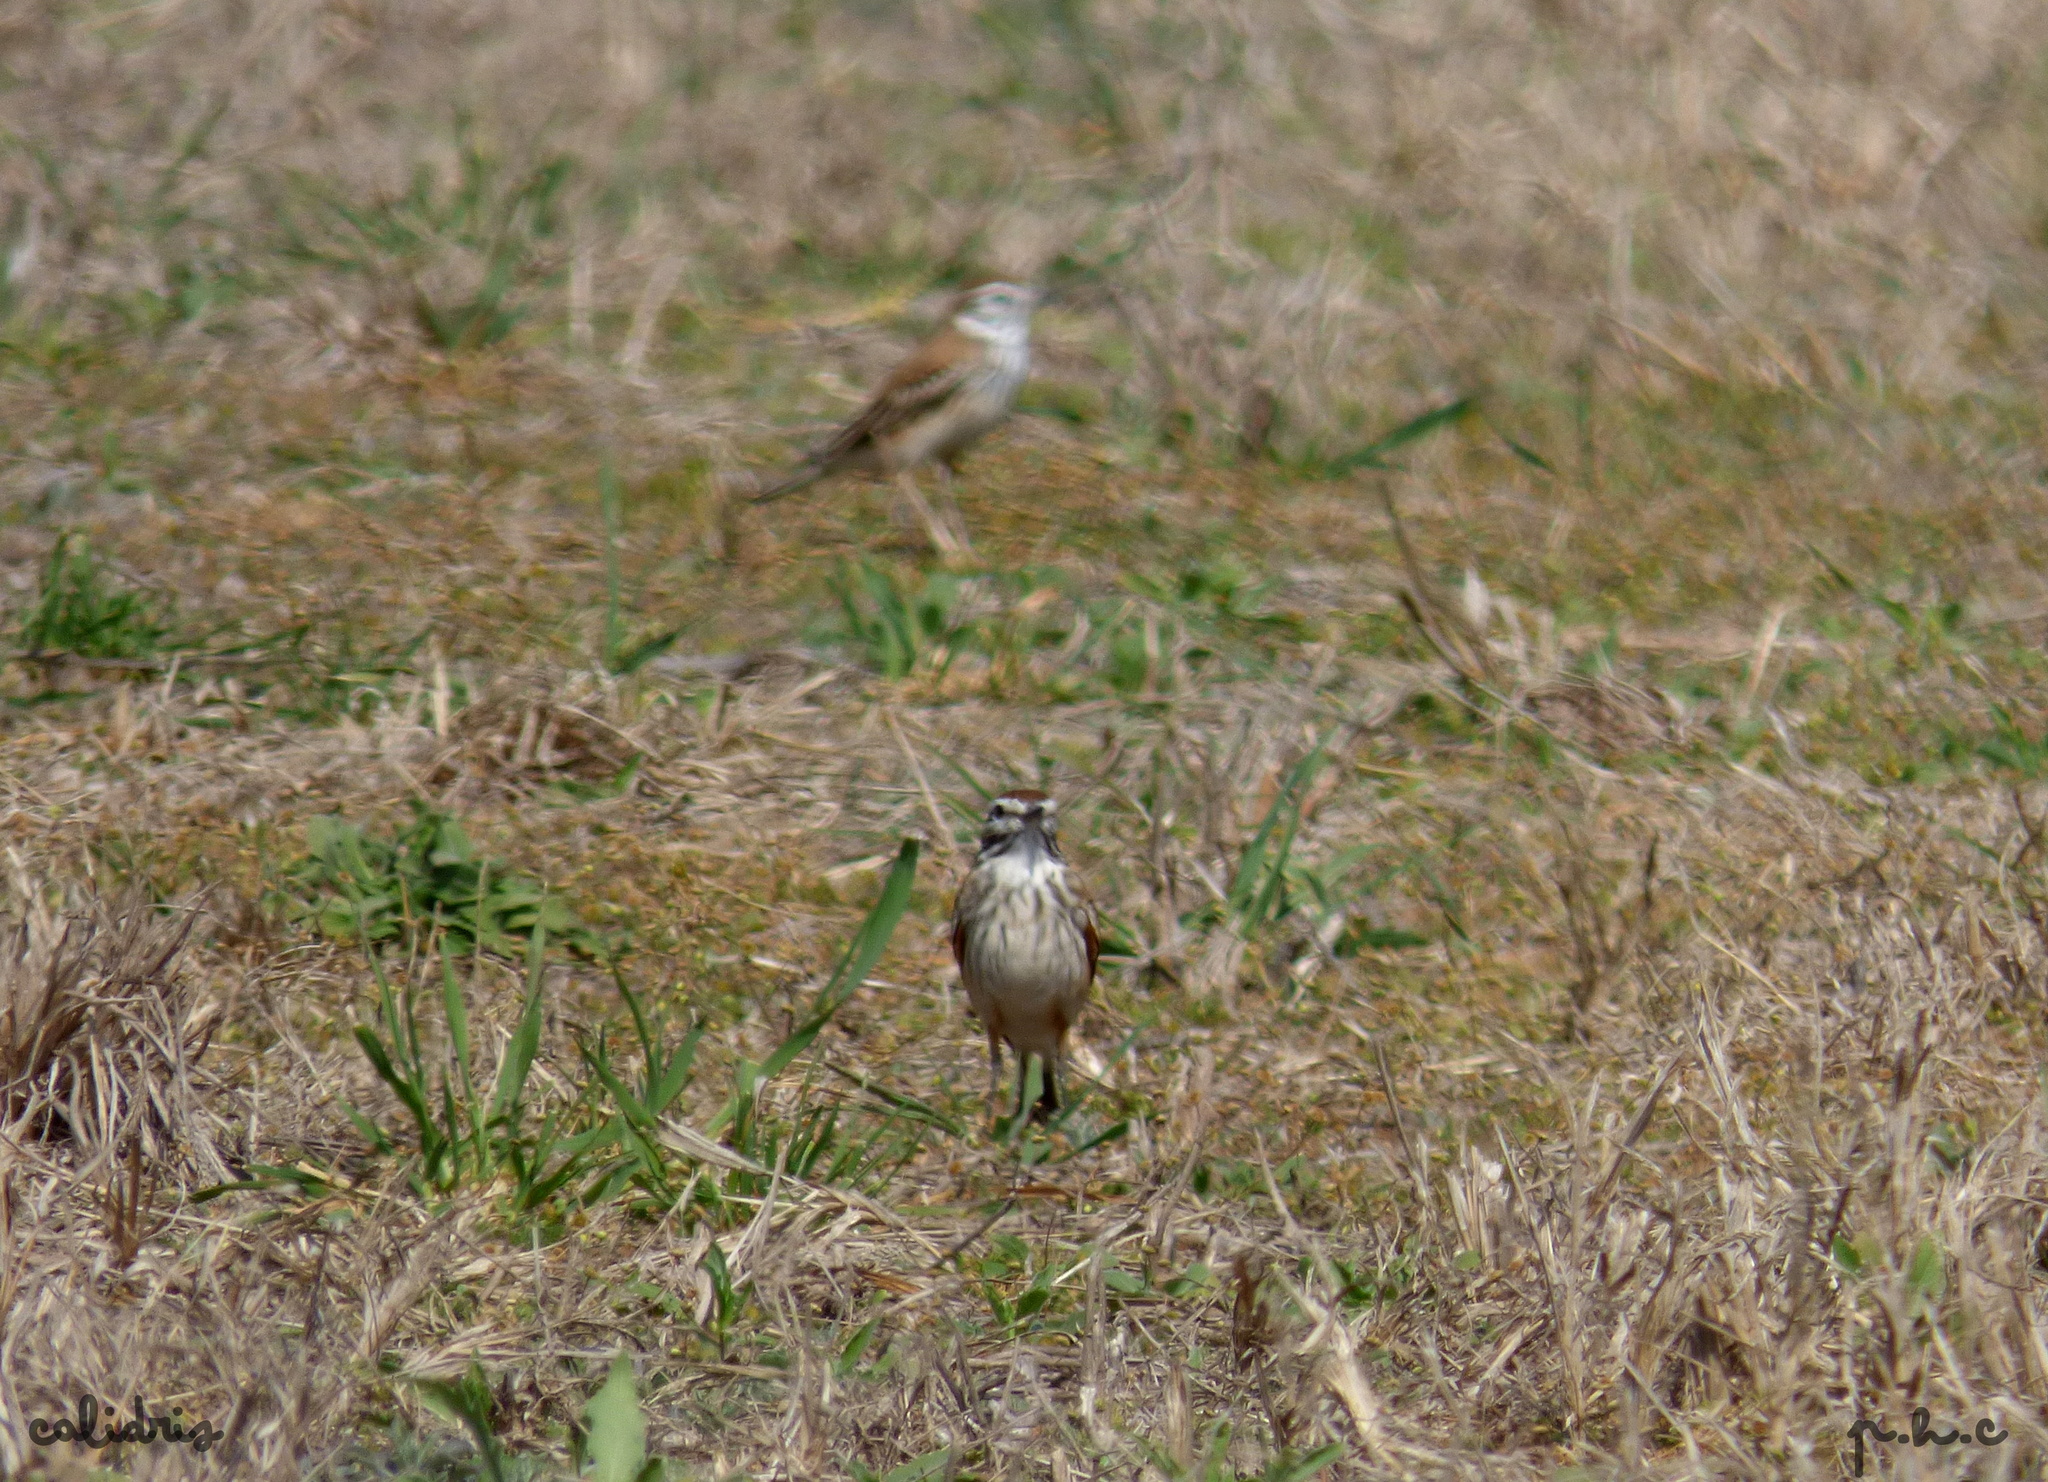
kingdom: Animalia
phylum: Chordata
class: Aves
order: Passeriformes
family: Tyrannidae
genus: Xolmis
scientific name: Xolmis rubetra
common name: Rusty-backed monjita
